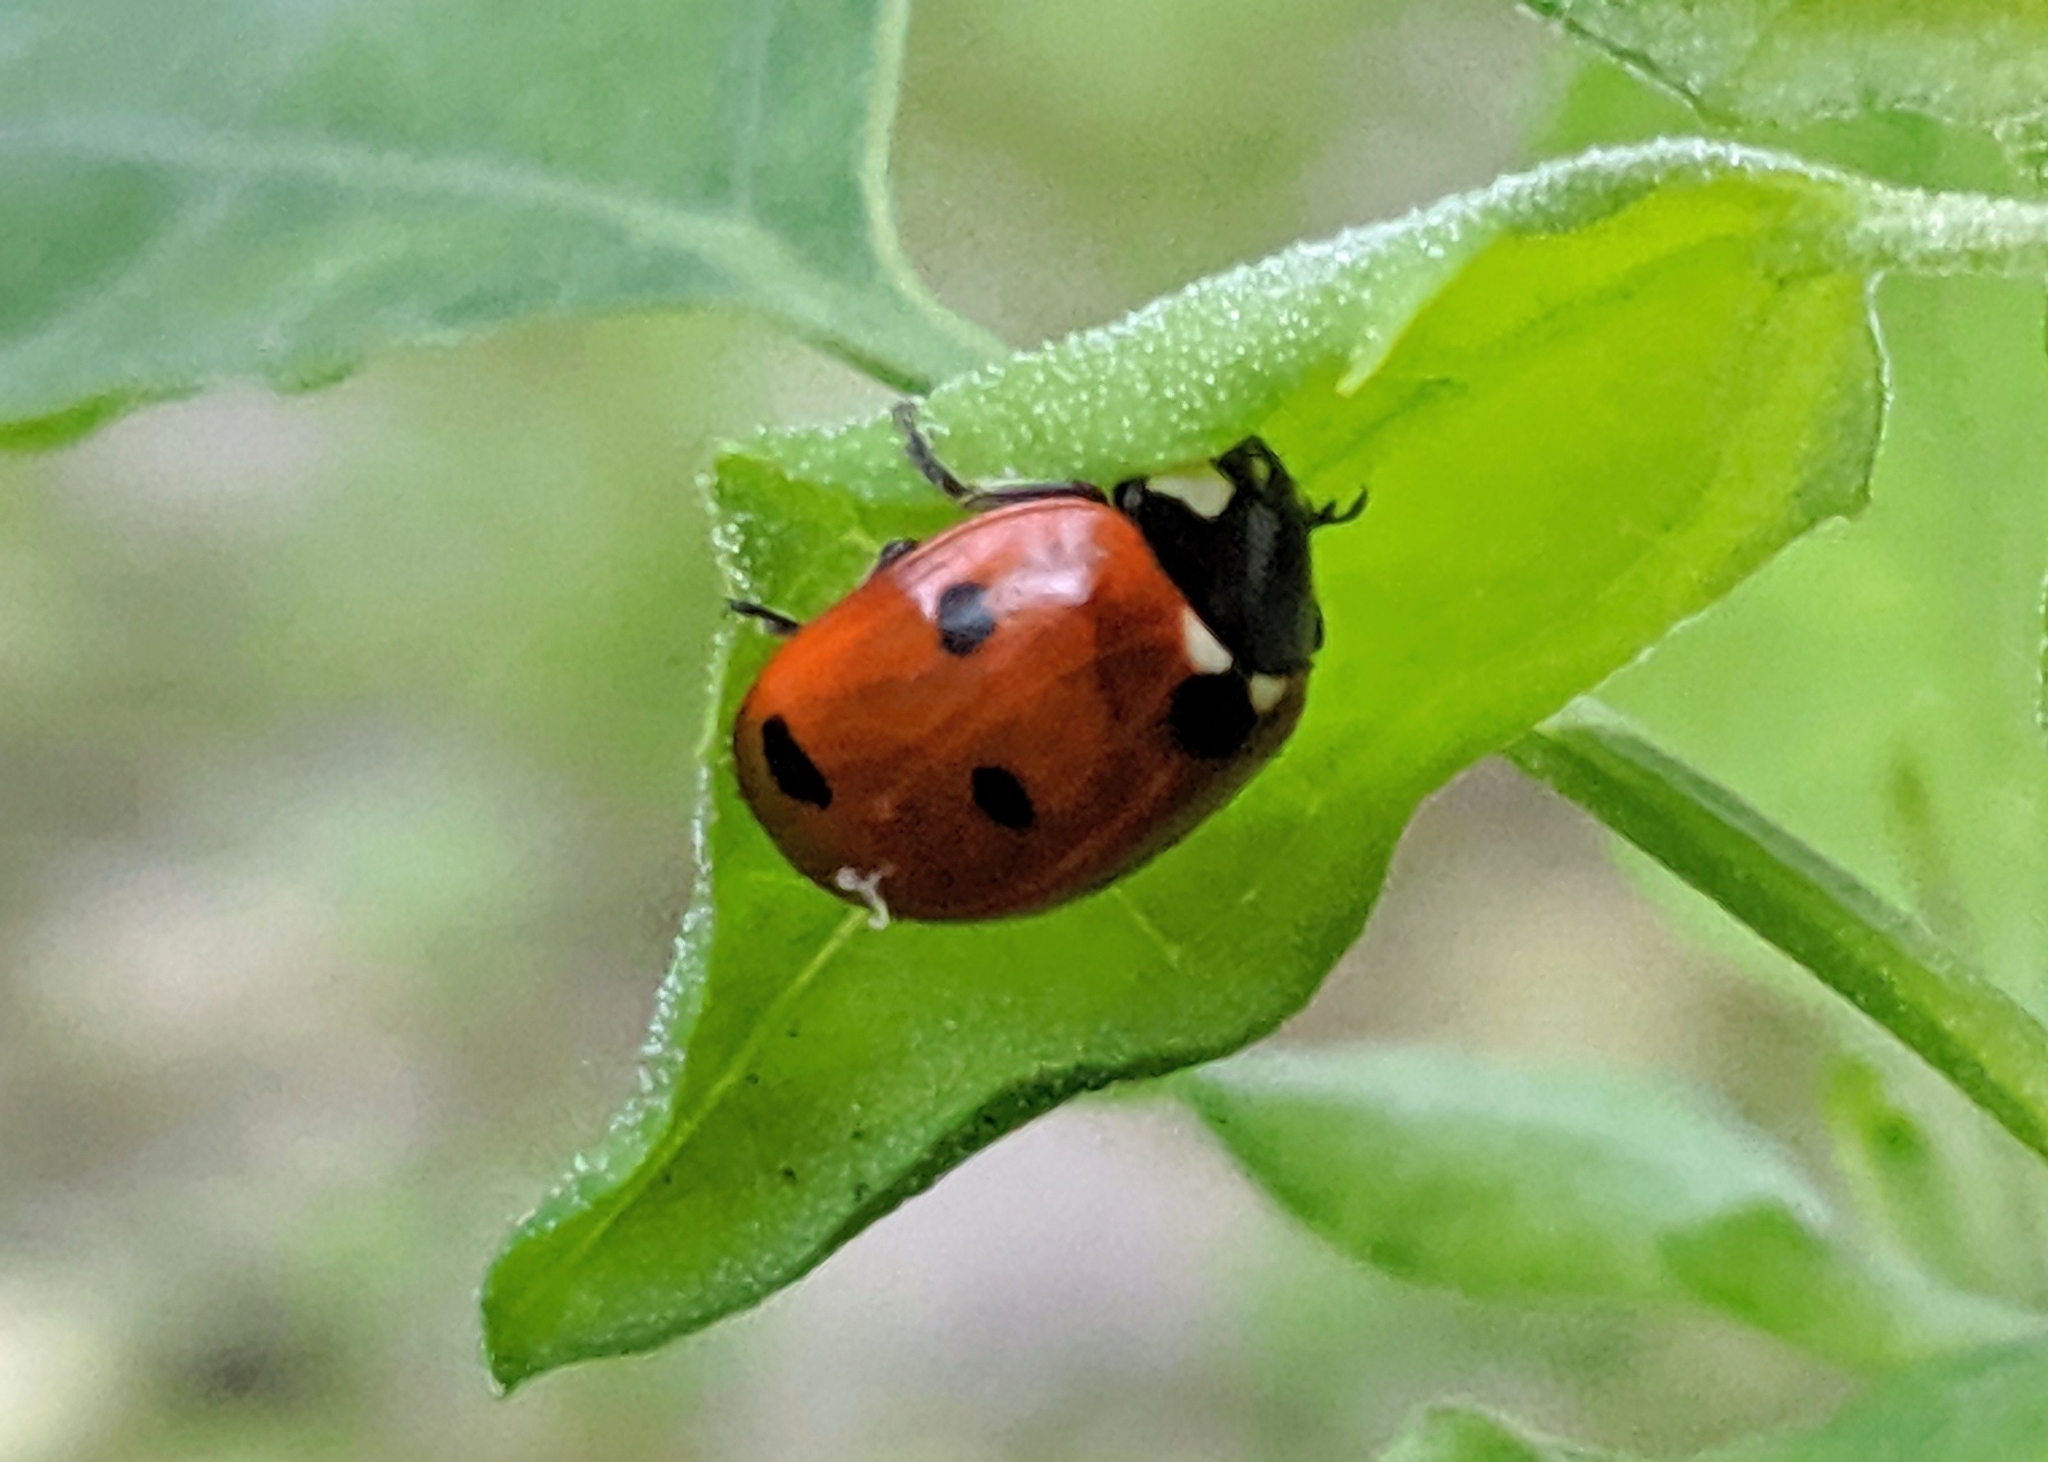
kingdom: Animalia
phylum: Arthropoda
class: Insecta
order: Coleoptera
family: Coccinellidae
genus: Coccinella
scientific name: Coccinella septempunctata
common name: Sevenspotted lady beetle
